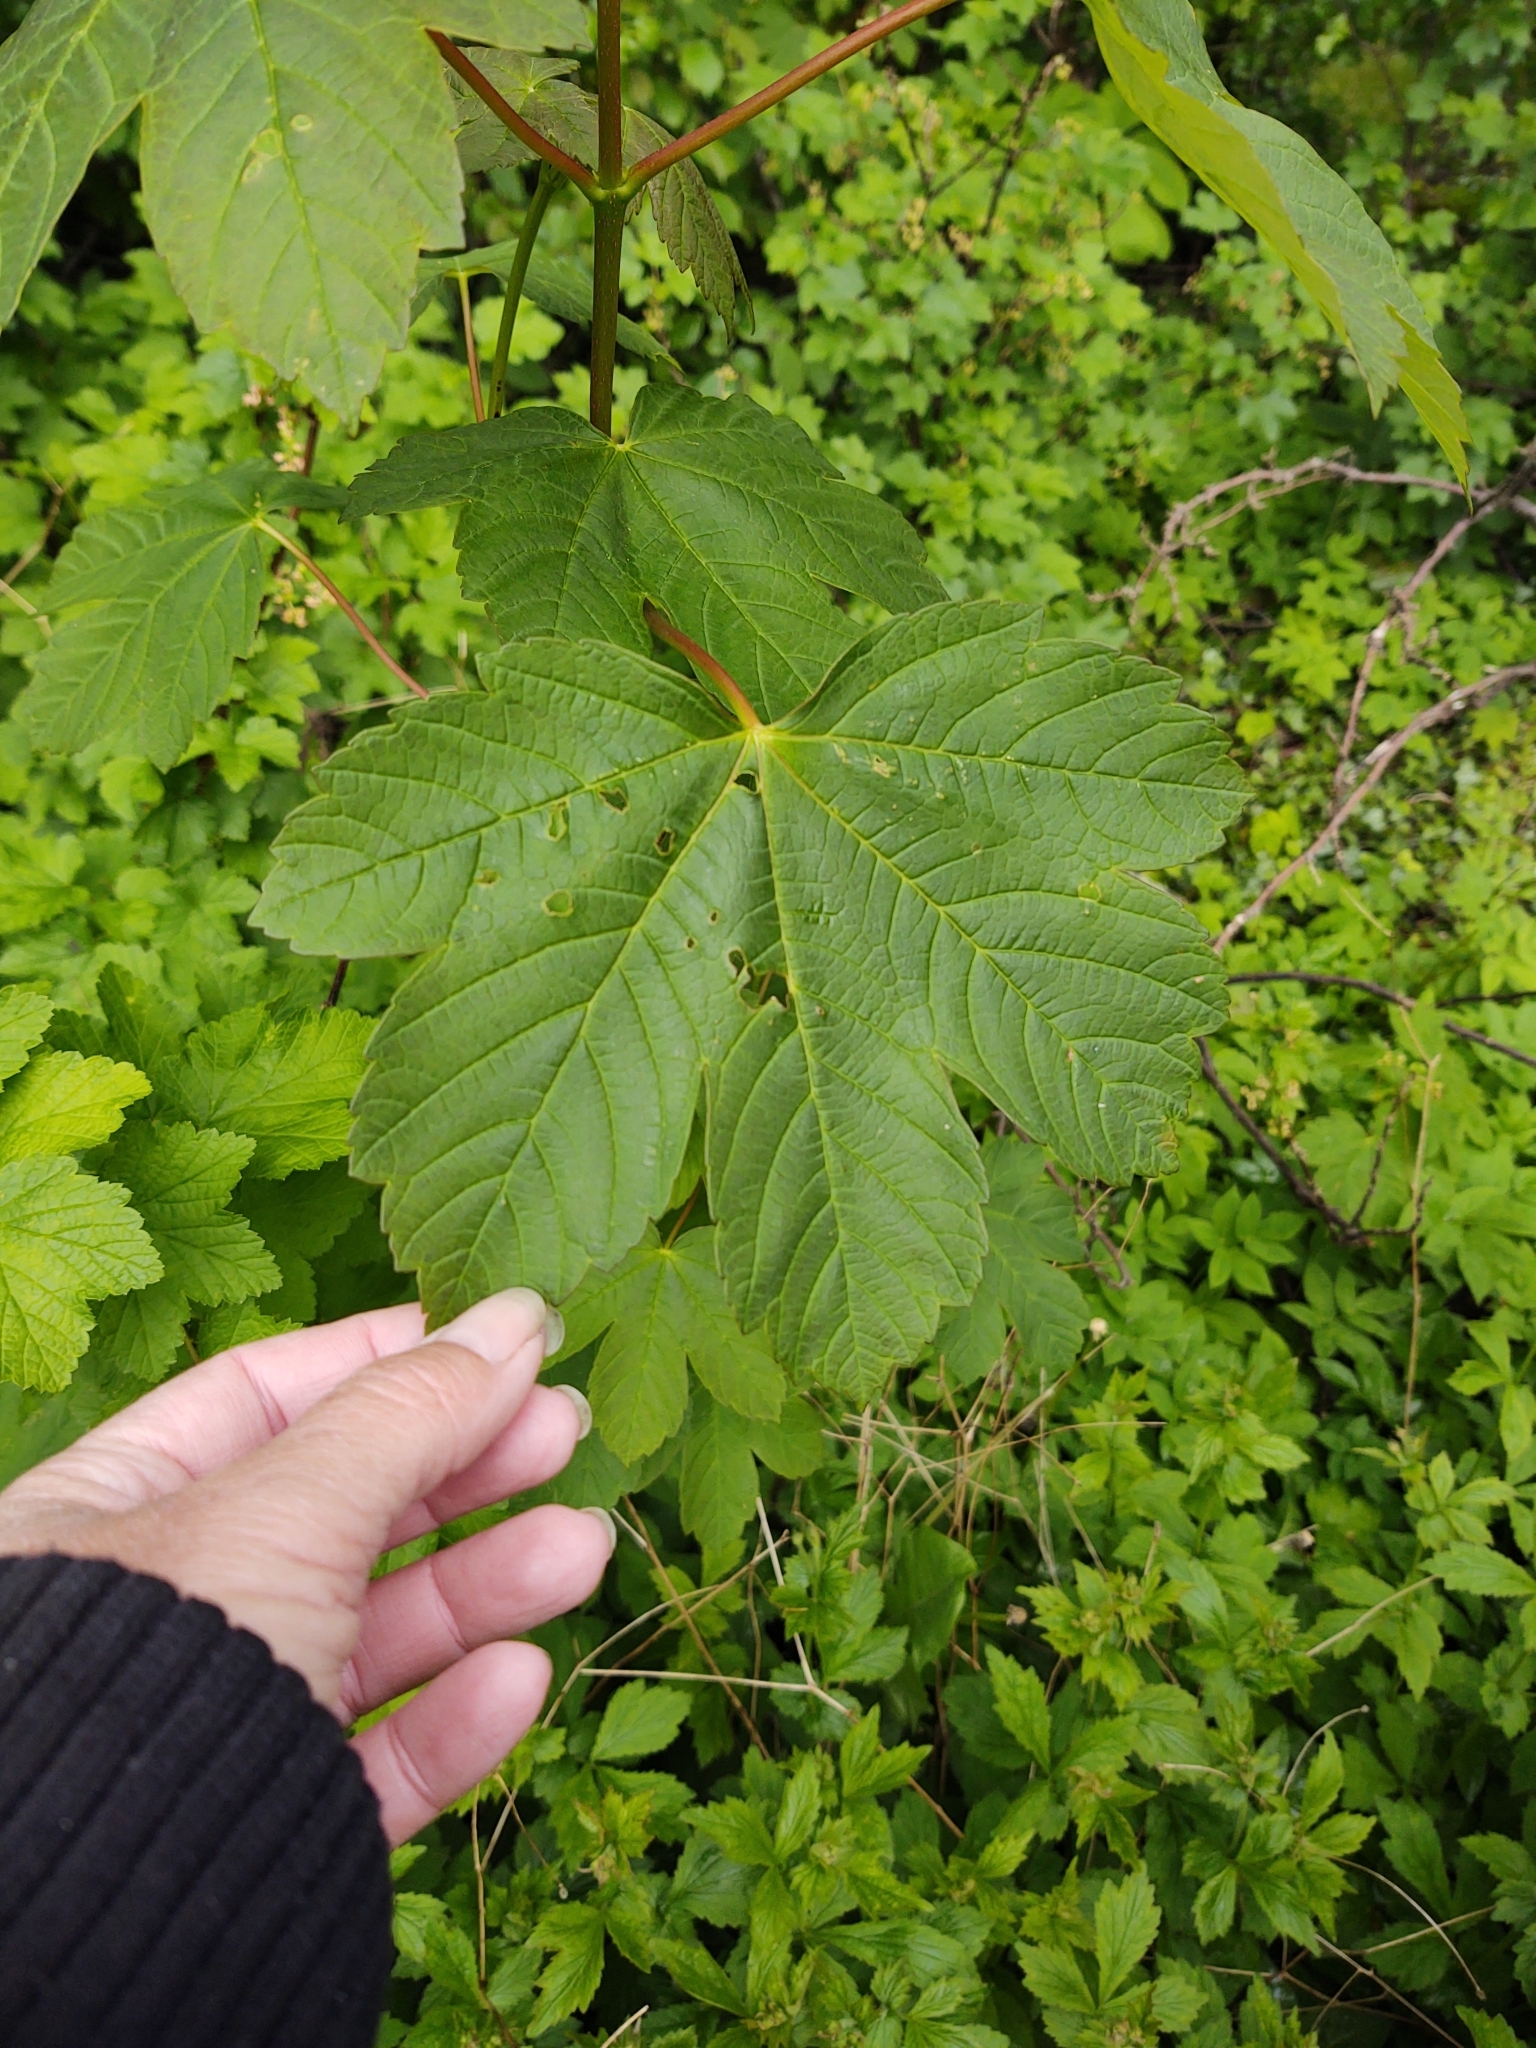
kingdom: Plantae
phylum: Tracheophyta
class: Magnoliopsida
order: Sapindales
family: Sapindaceae
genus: Acer
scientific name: Acer pseudoplatanus
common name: Sycamore
